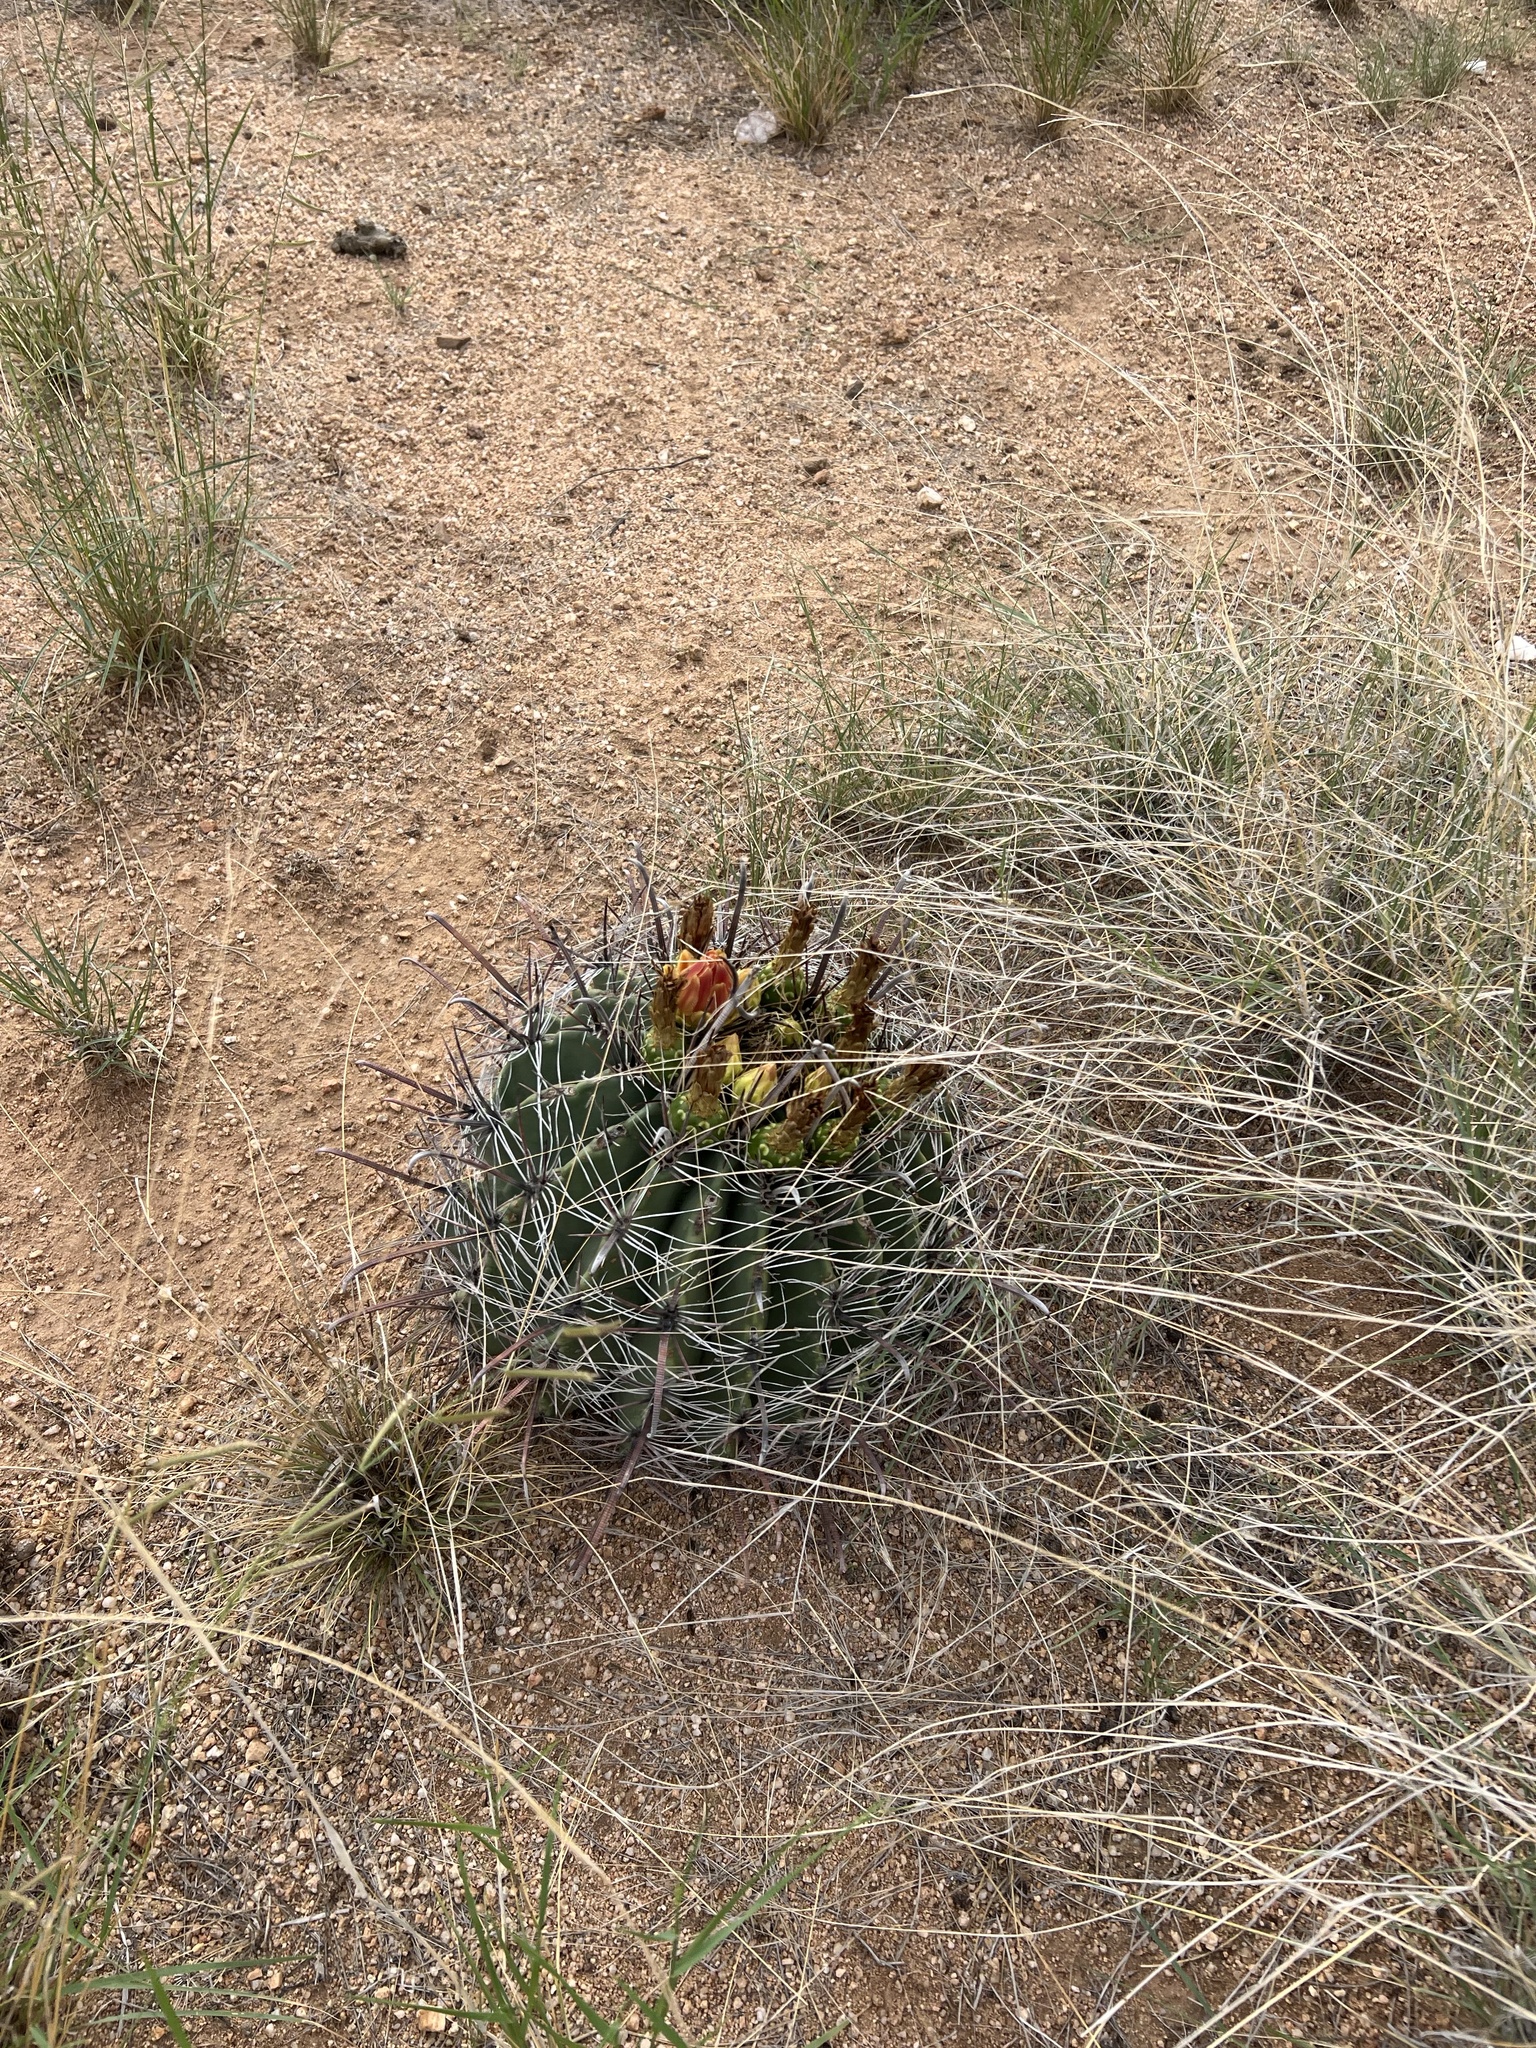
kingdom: Plantae
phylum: Tracheophyta
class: Magnoliopsida
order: Caryophyllales
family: Cactaceae
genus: Ferocactus
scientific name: Ferocactus wislizeni
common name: Candy barrel cactus
